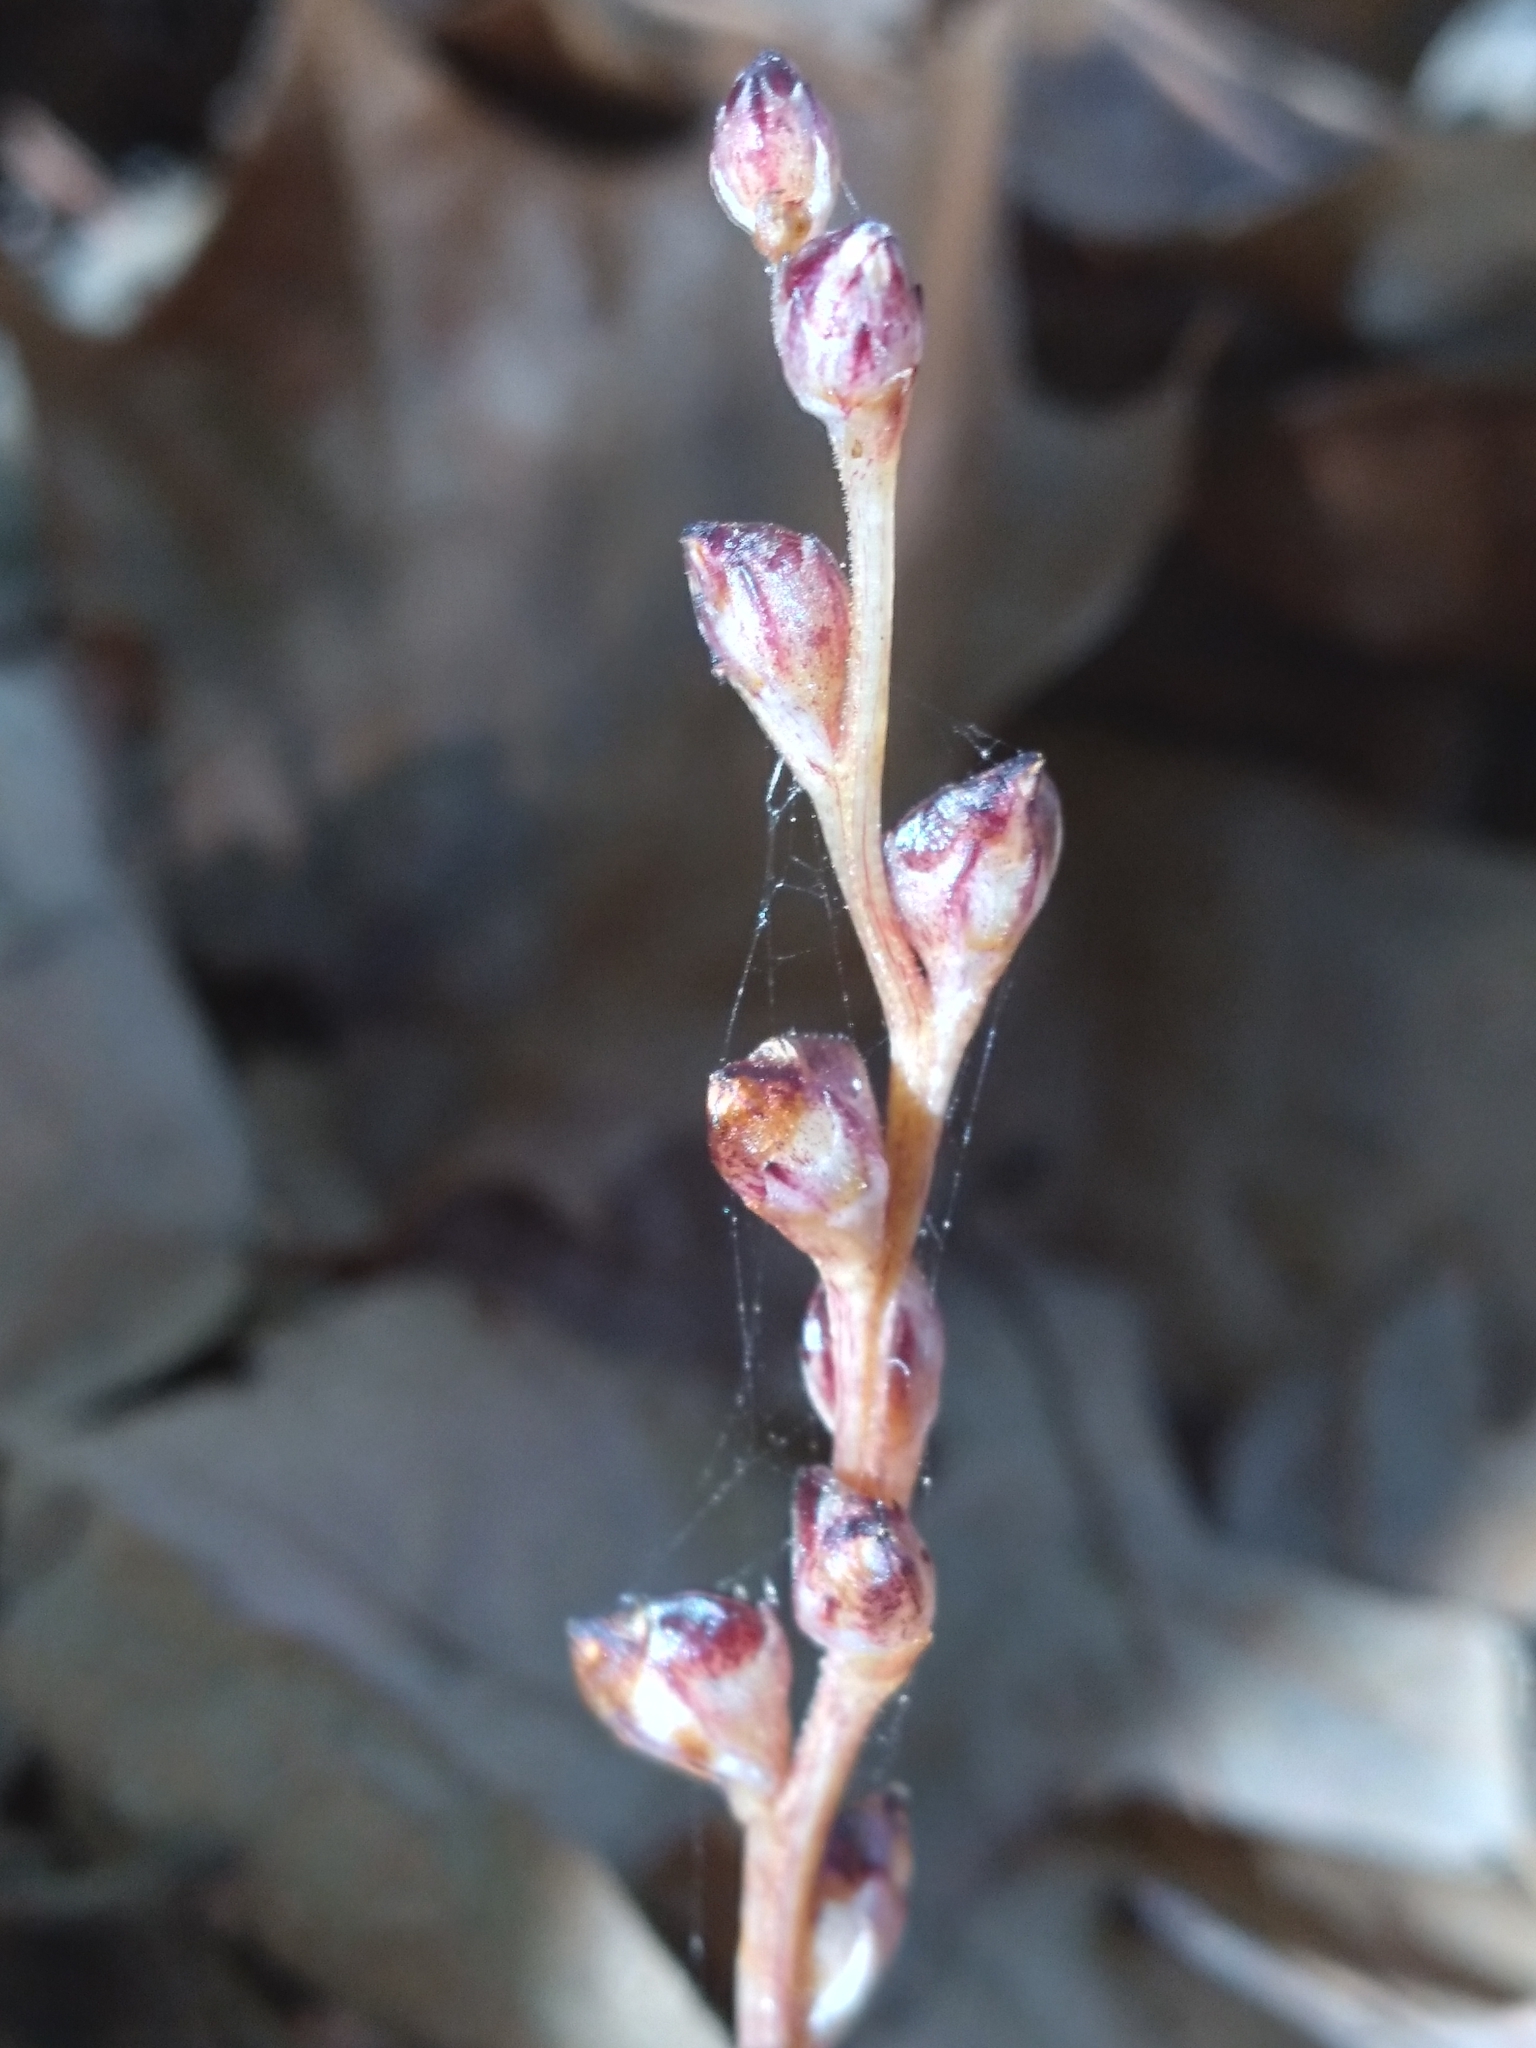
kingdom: Plantae
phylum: Tracheophyta
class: Magnoliopsida
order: Lamiales
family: Orobanchaceae
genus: Epifagus
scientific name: Epifagus virginiana
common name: Beechdrops
